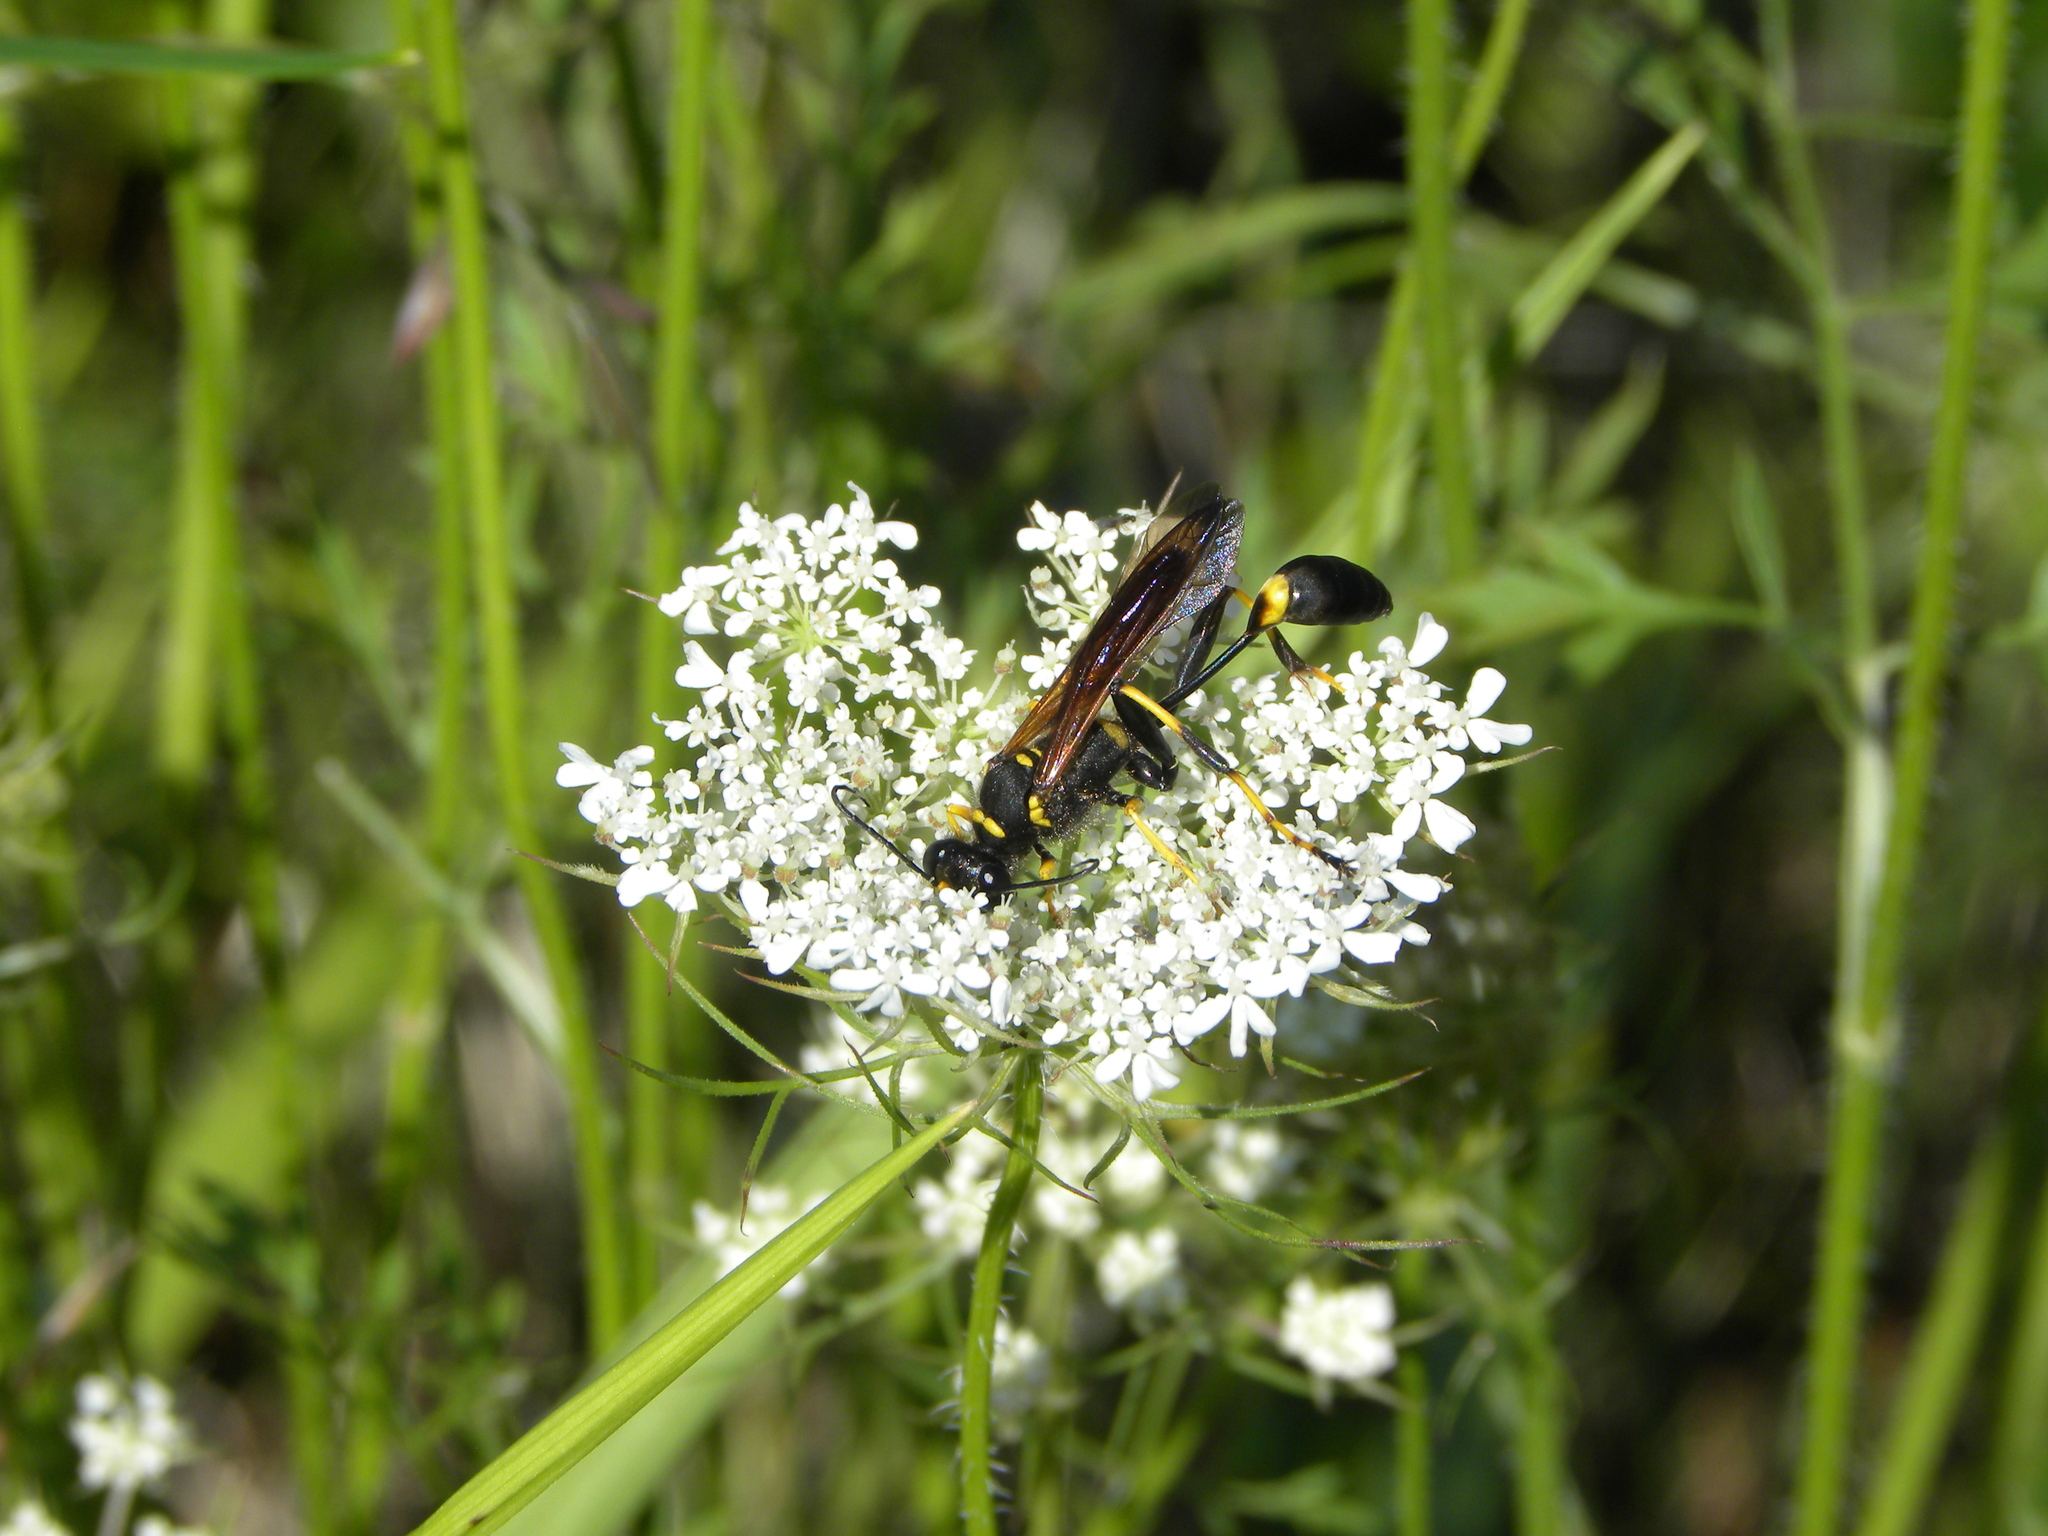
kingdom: Animalia
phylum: Arthropoda
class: Insecta
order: Hymenoptera
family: Sphecidae
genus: Sceliphron
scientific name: Sceliphron caementarium
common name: Mud dauber
